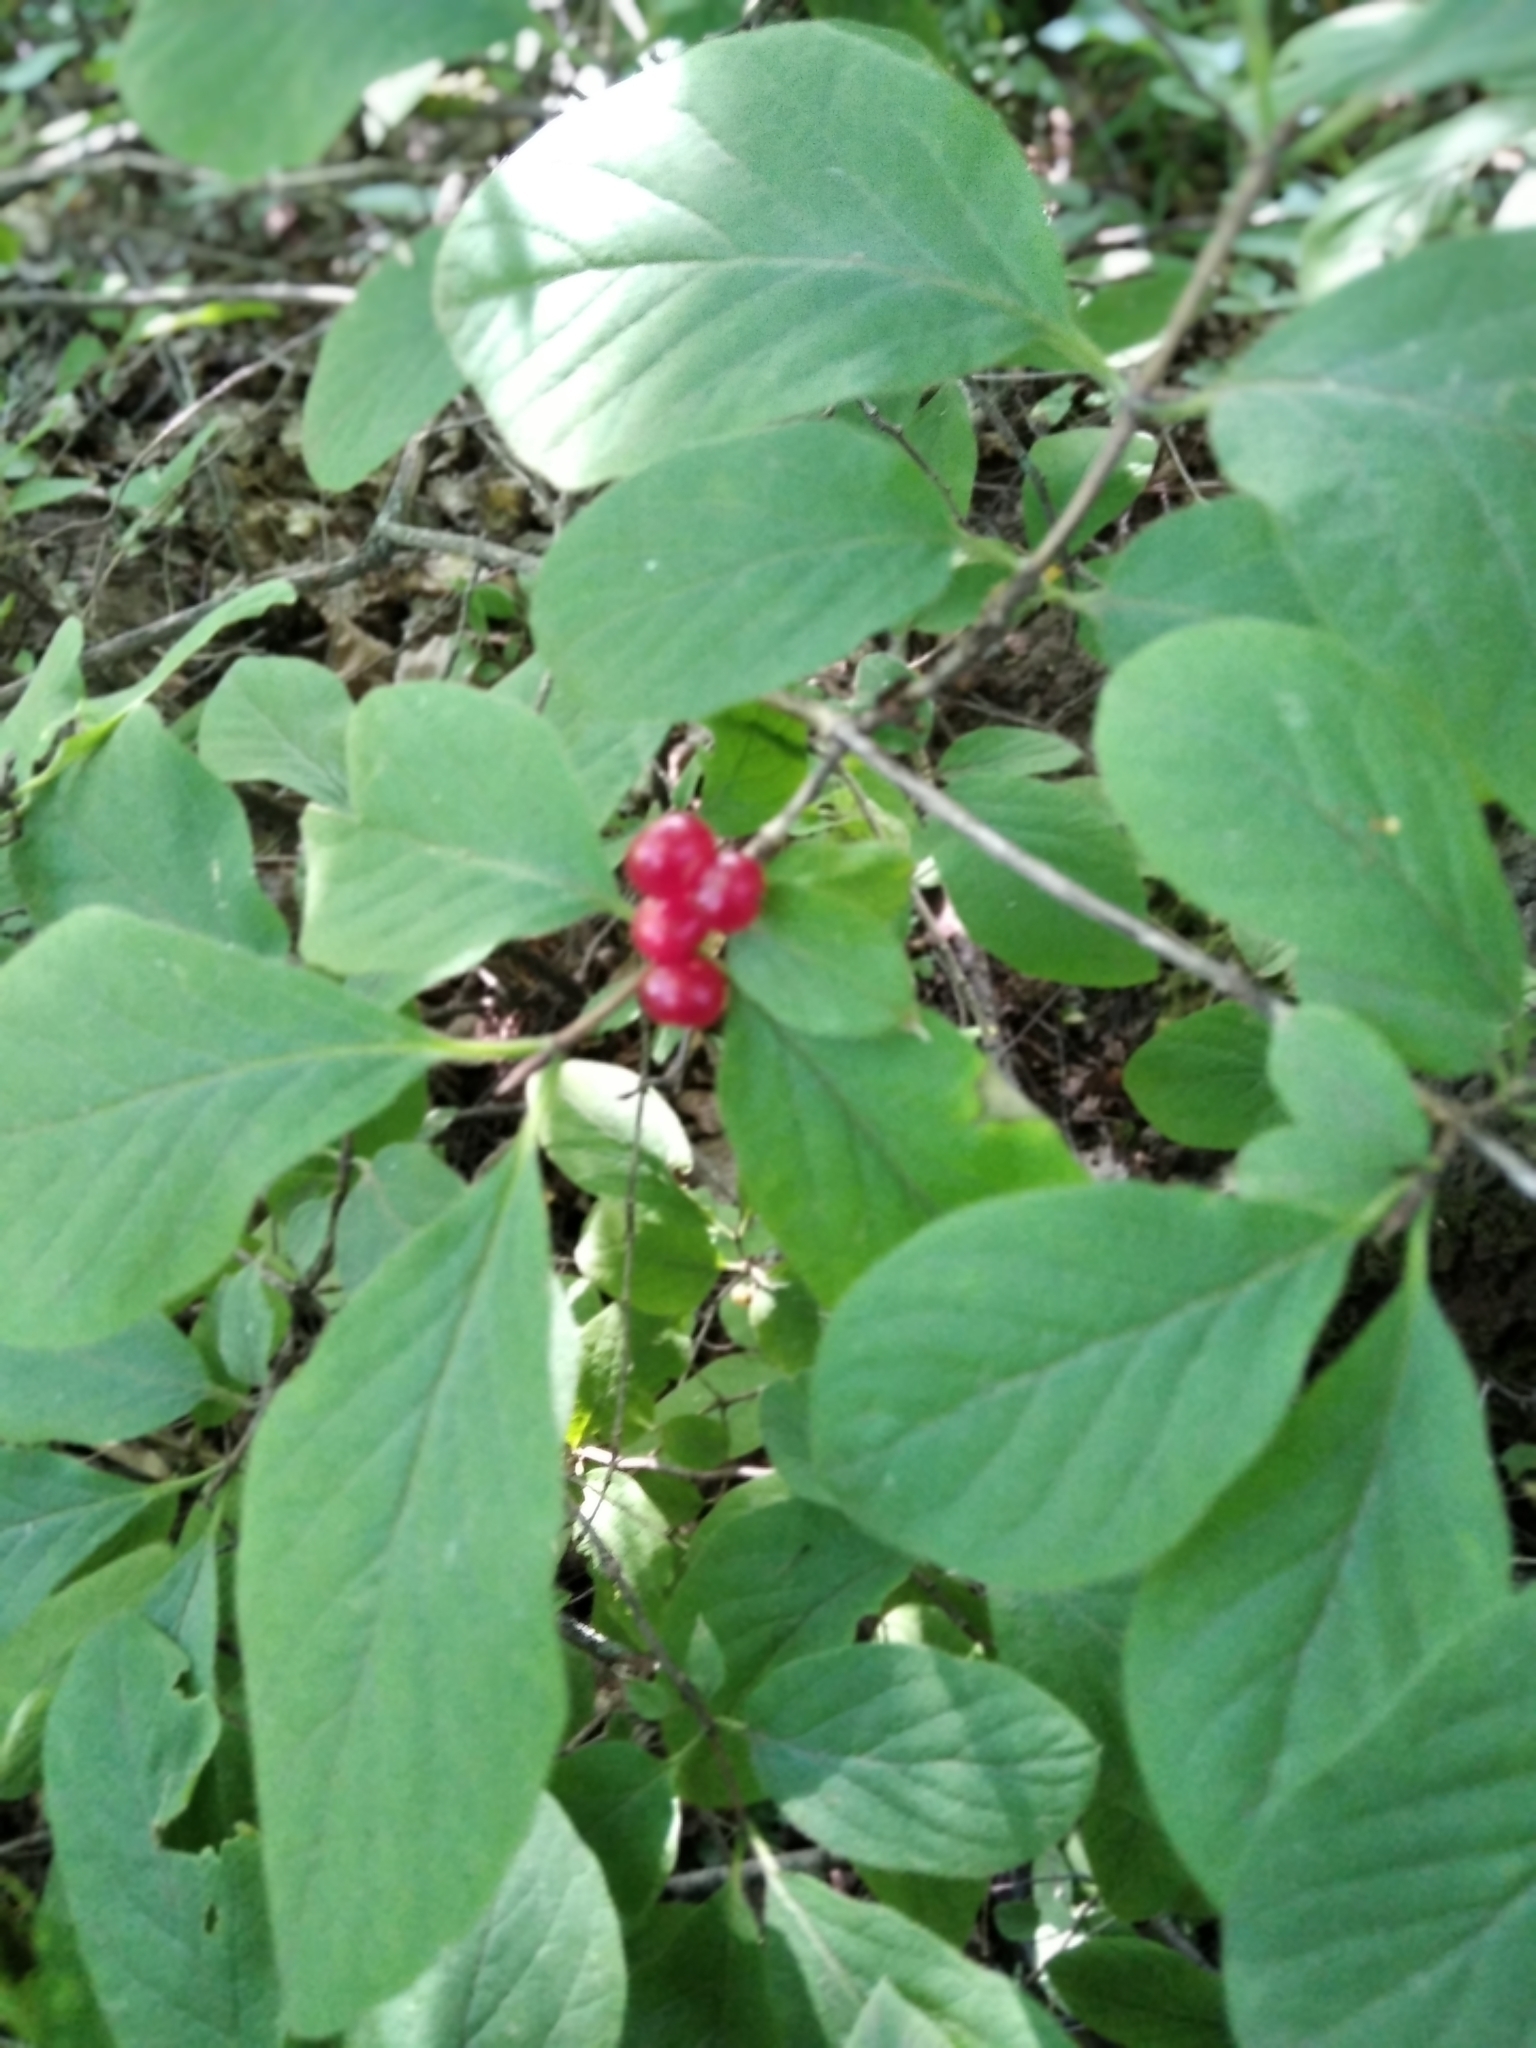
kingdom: Plantae
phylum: Tracheophyta
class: Magnoliopsida
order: Dipsacales
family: Caprifoliaceae
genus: Lonicera
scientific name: Lonicera xylosteum
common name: Fly honeysuckle
